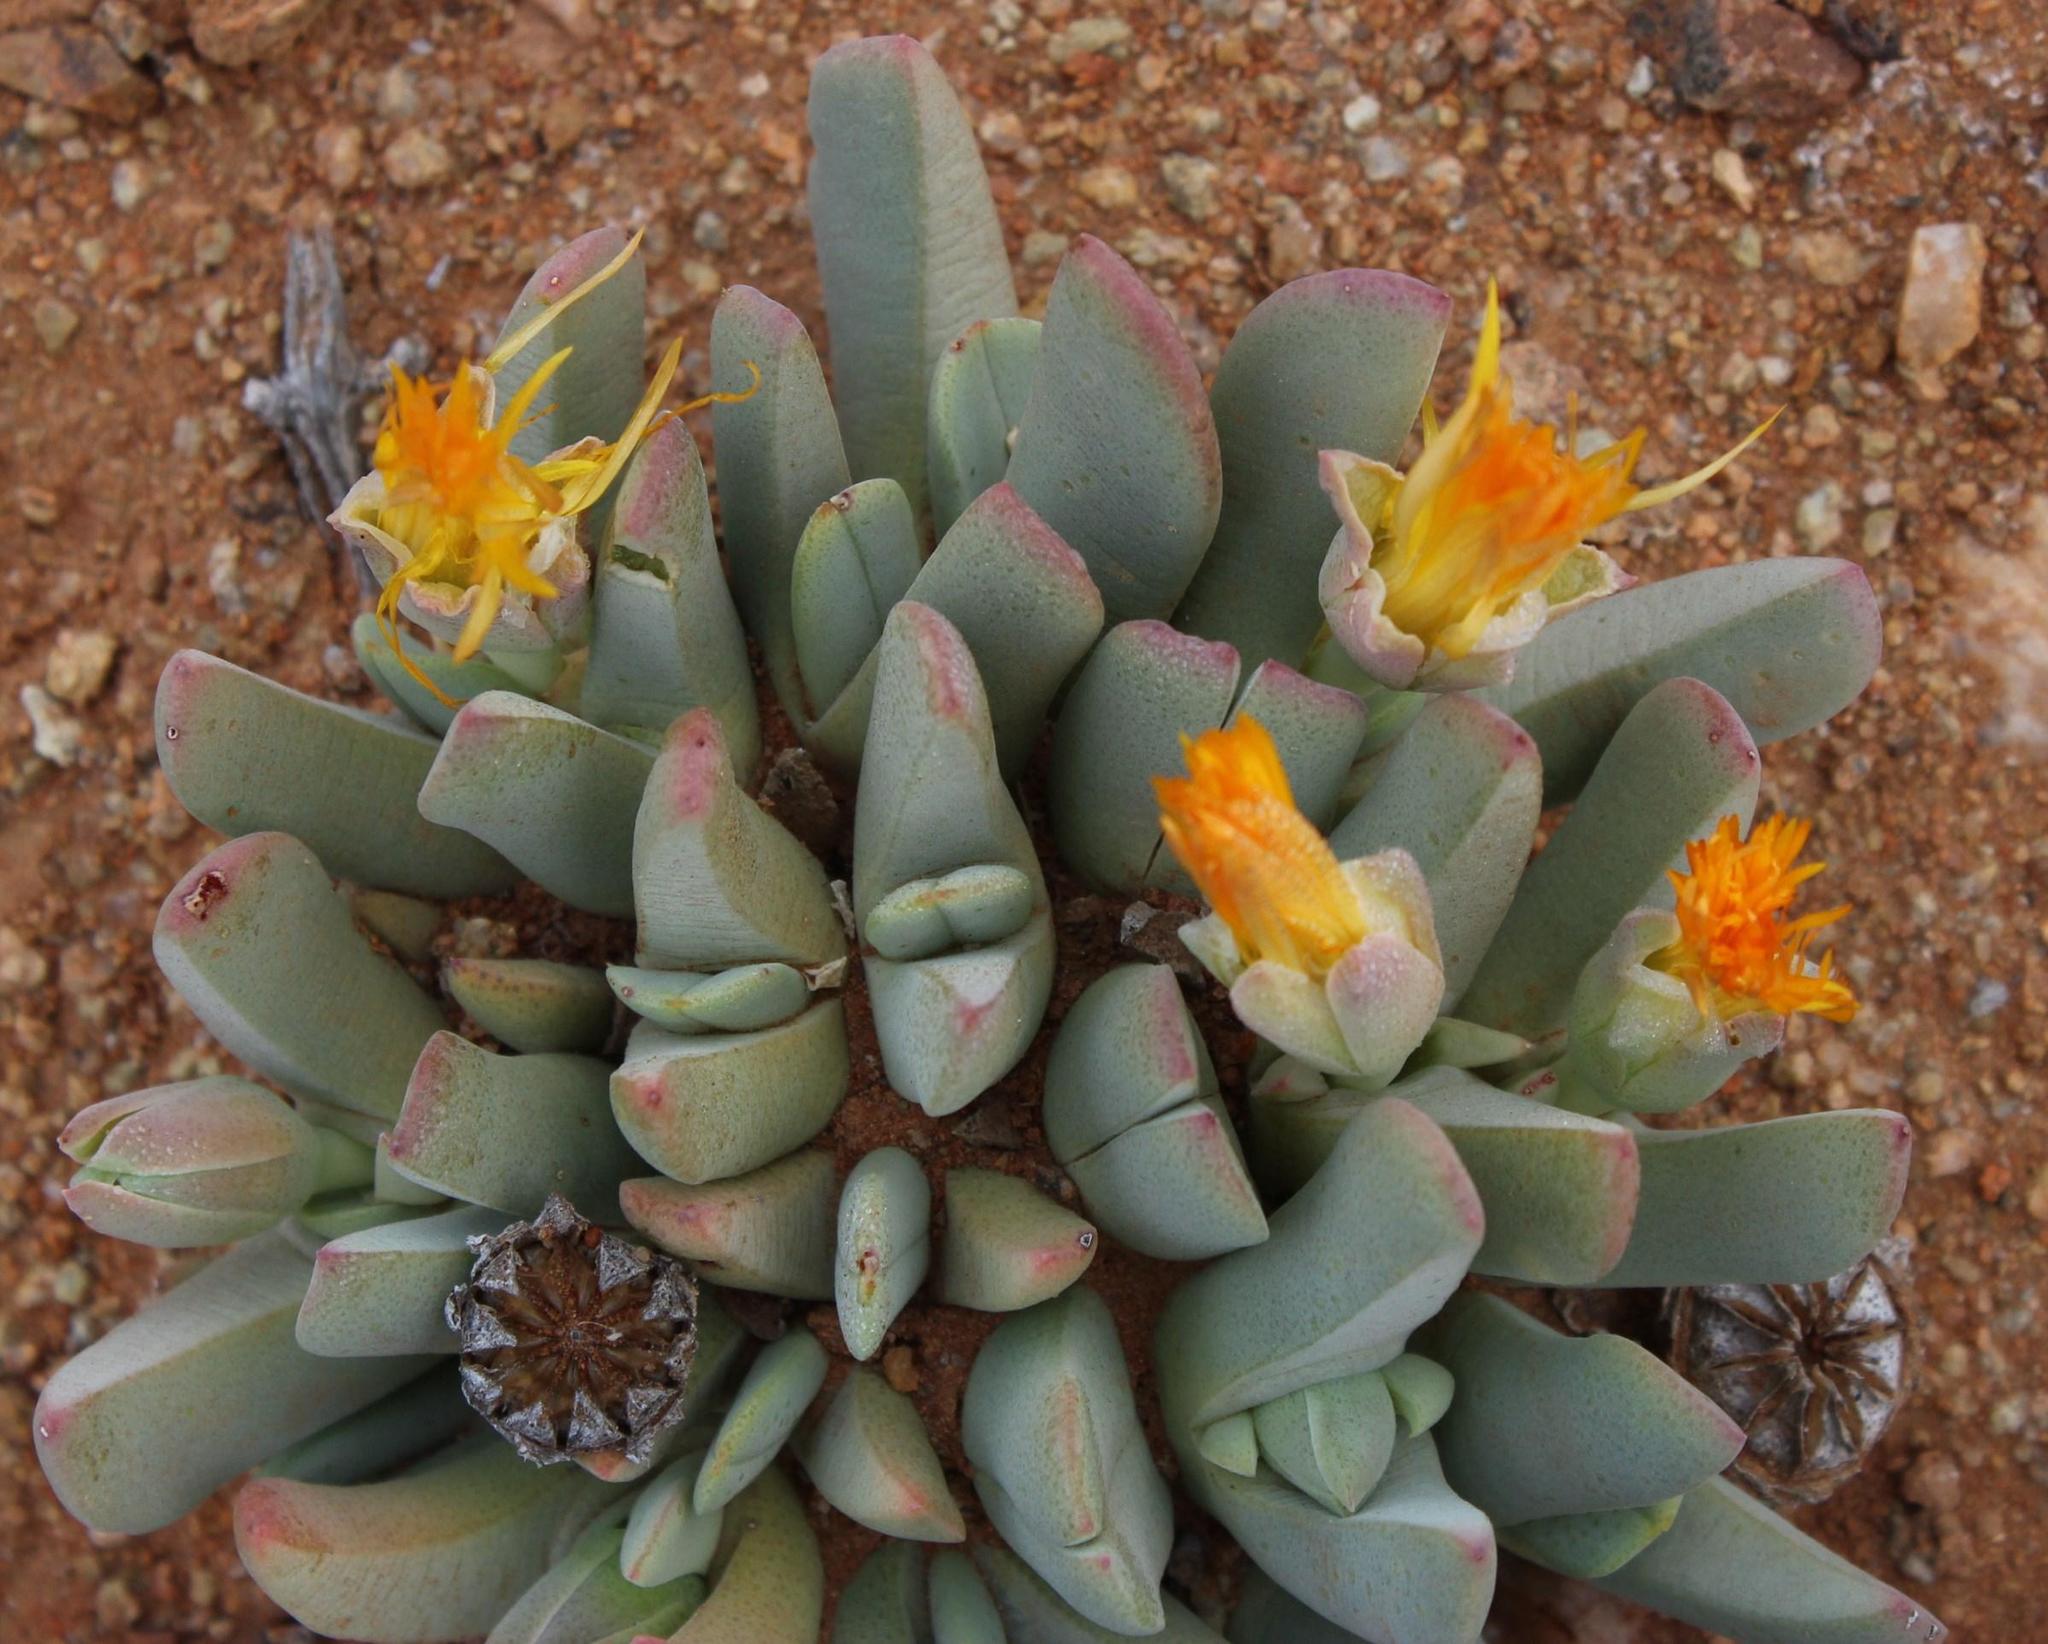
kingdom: Plantae
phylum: Tracheophyta
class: Magnoliopsida
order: Caryophyllales
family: Aizoaceae
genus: Cheiridopsis
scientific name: Cheiridopsis robusta
